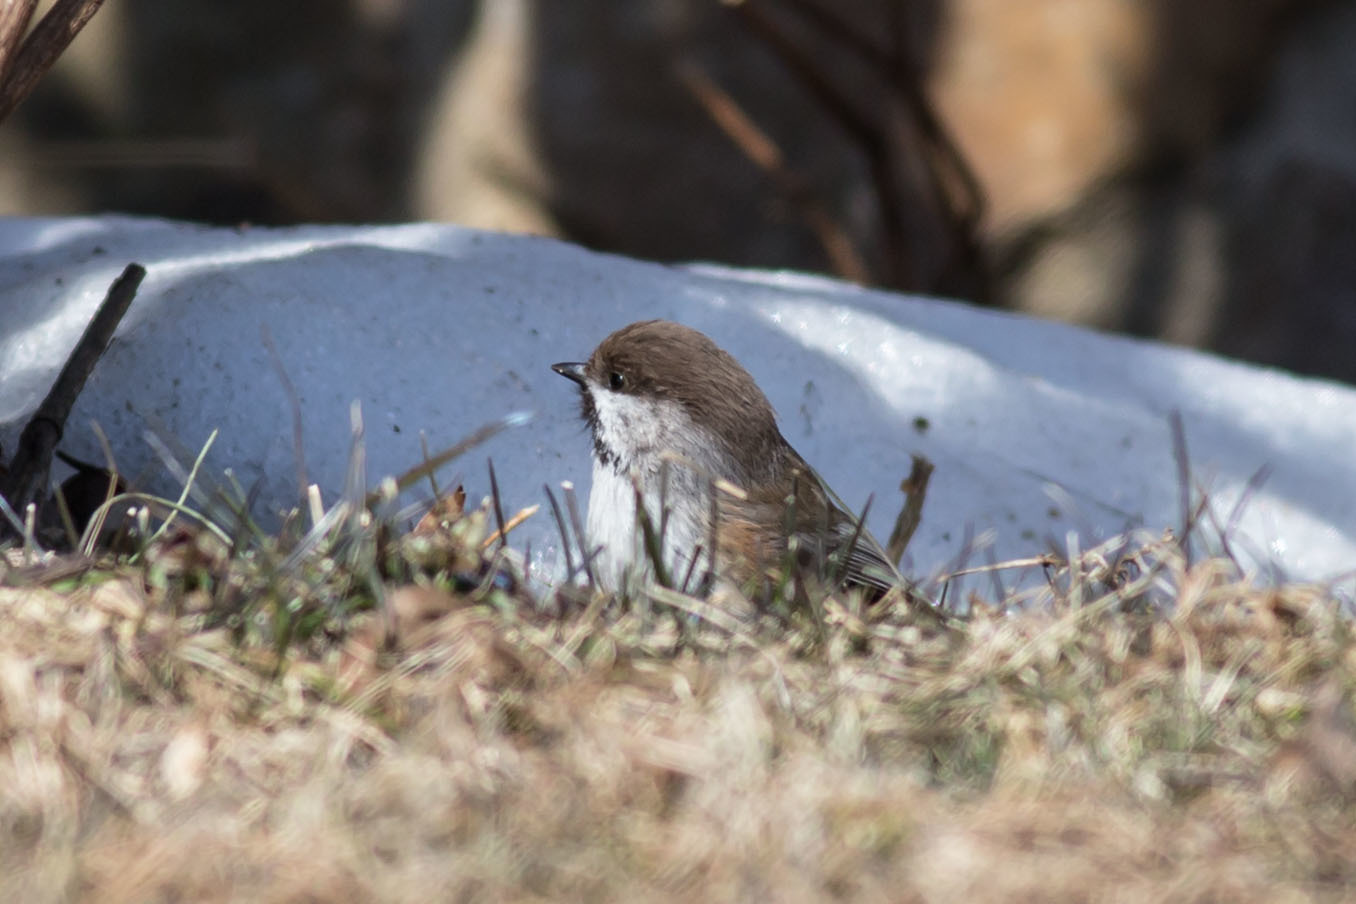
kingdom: Animalia
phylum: Chordata
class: Aves
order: Passeriformes
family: Paridae
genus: Poecile
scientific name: Poecile hudsonicus
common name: Boreal chickadee
